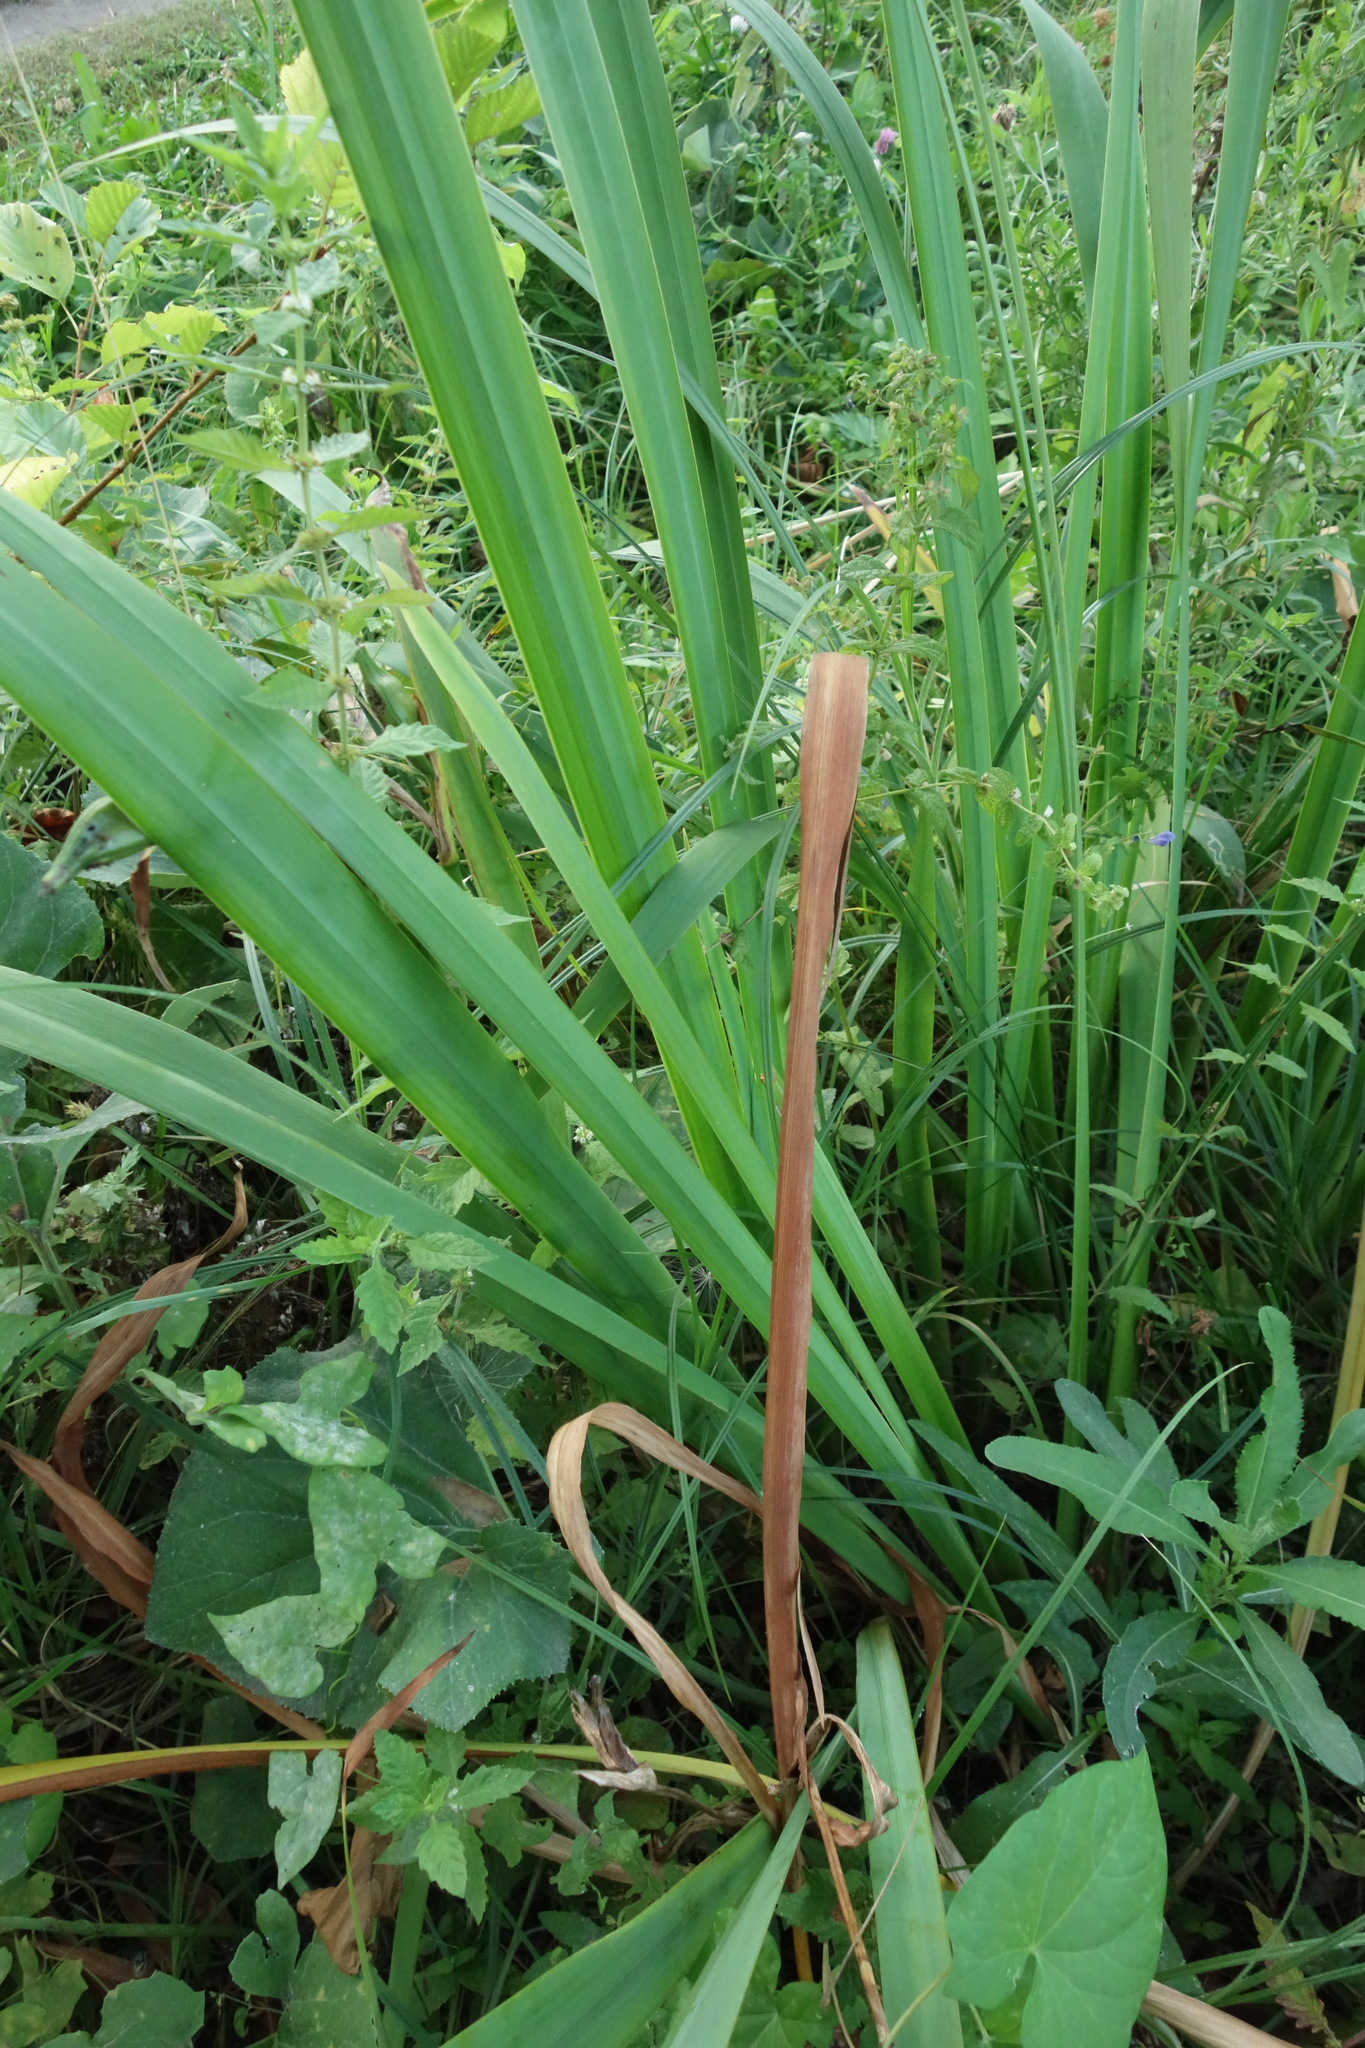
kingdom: Plantae
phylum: Tracheophyta
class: Liliopsida
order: Asparagales
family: Iridaceae
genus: Iris
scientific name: Iris pseudacorus
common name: Yellow flag
